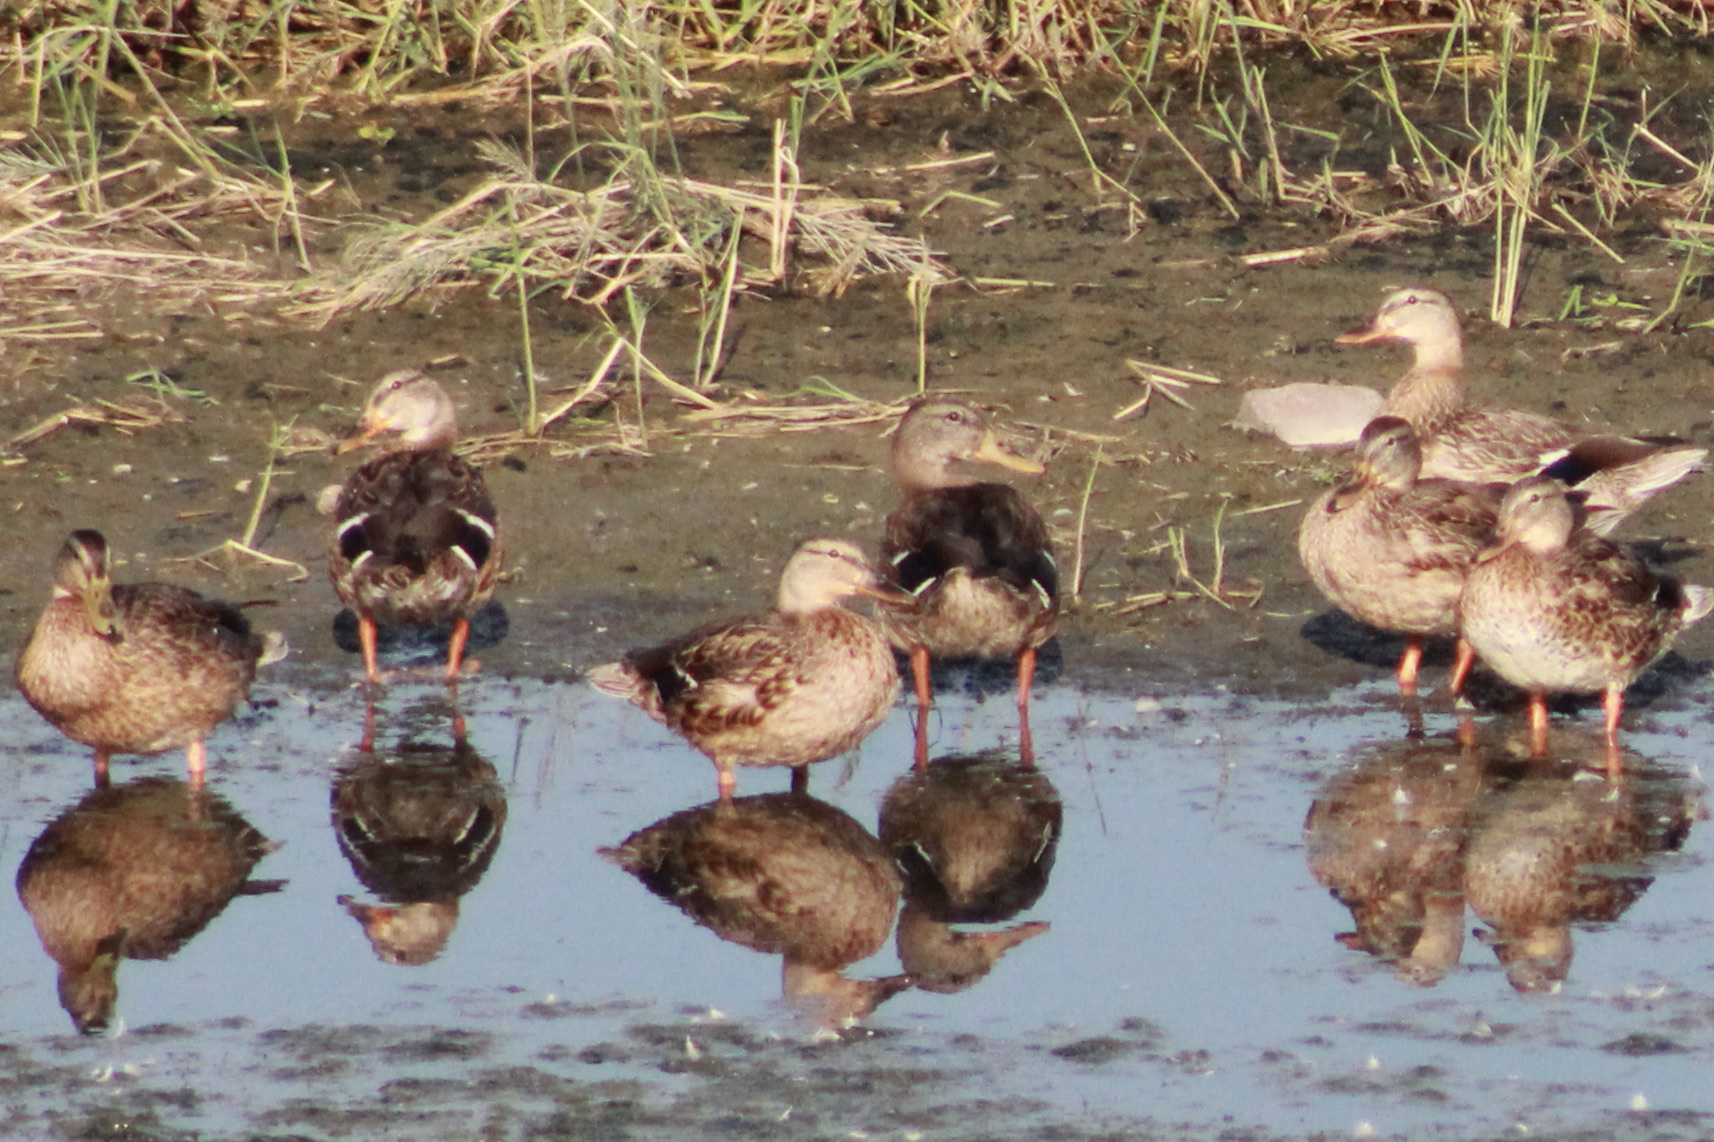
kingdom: Animalia
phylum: Chordata
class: Aves
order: Anseriformes
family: Anatidae
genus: Anas
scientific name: Anas platyrhynchos
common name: Mallard
